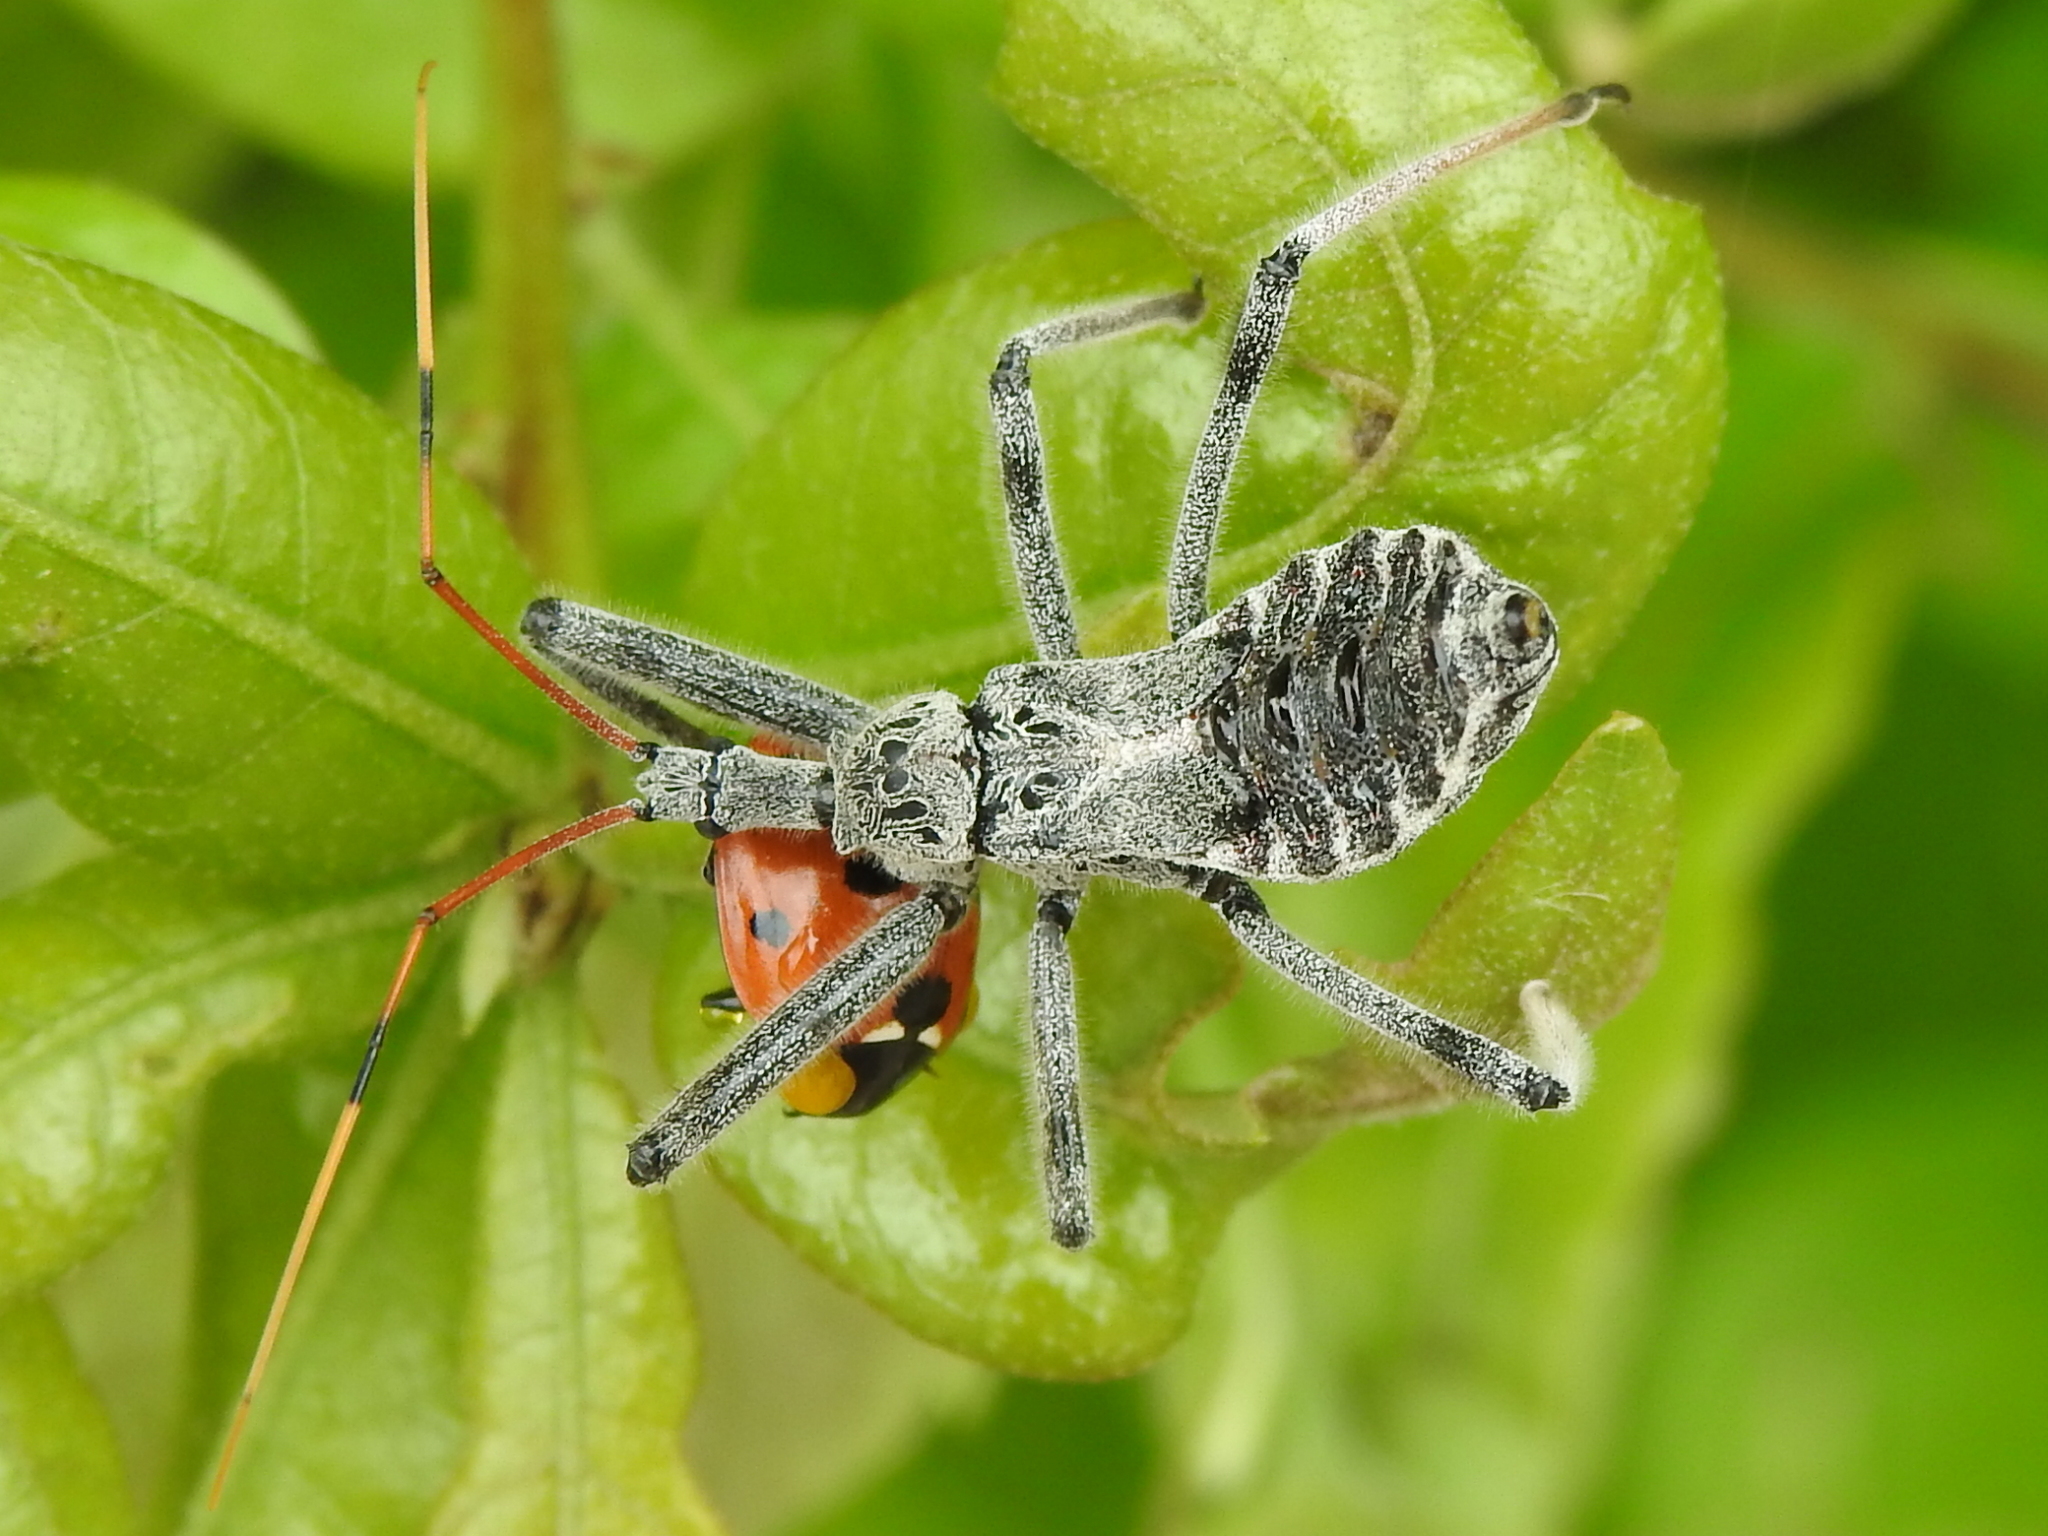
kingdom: Animalia
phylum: Arthropoda
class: Insecta
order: Hemiptera
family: Reduviidae
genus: Arilus
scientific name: Arilus cristatus
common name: North american wheel bug
